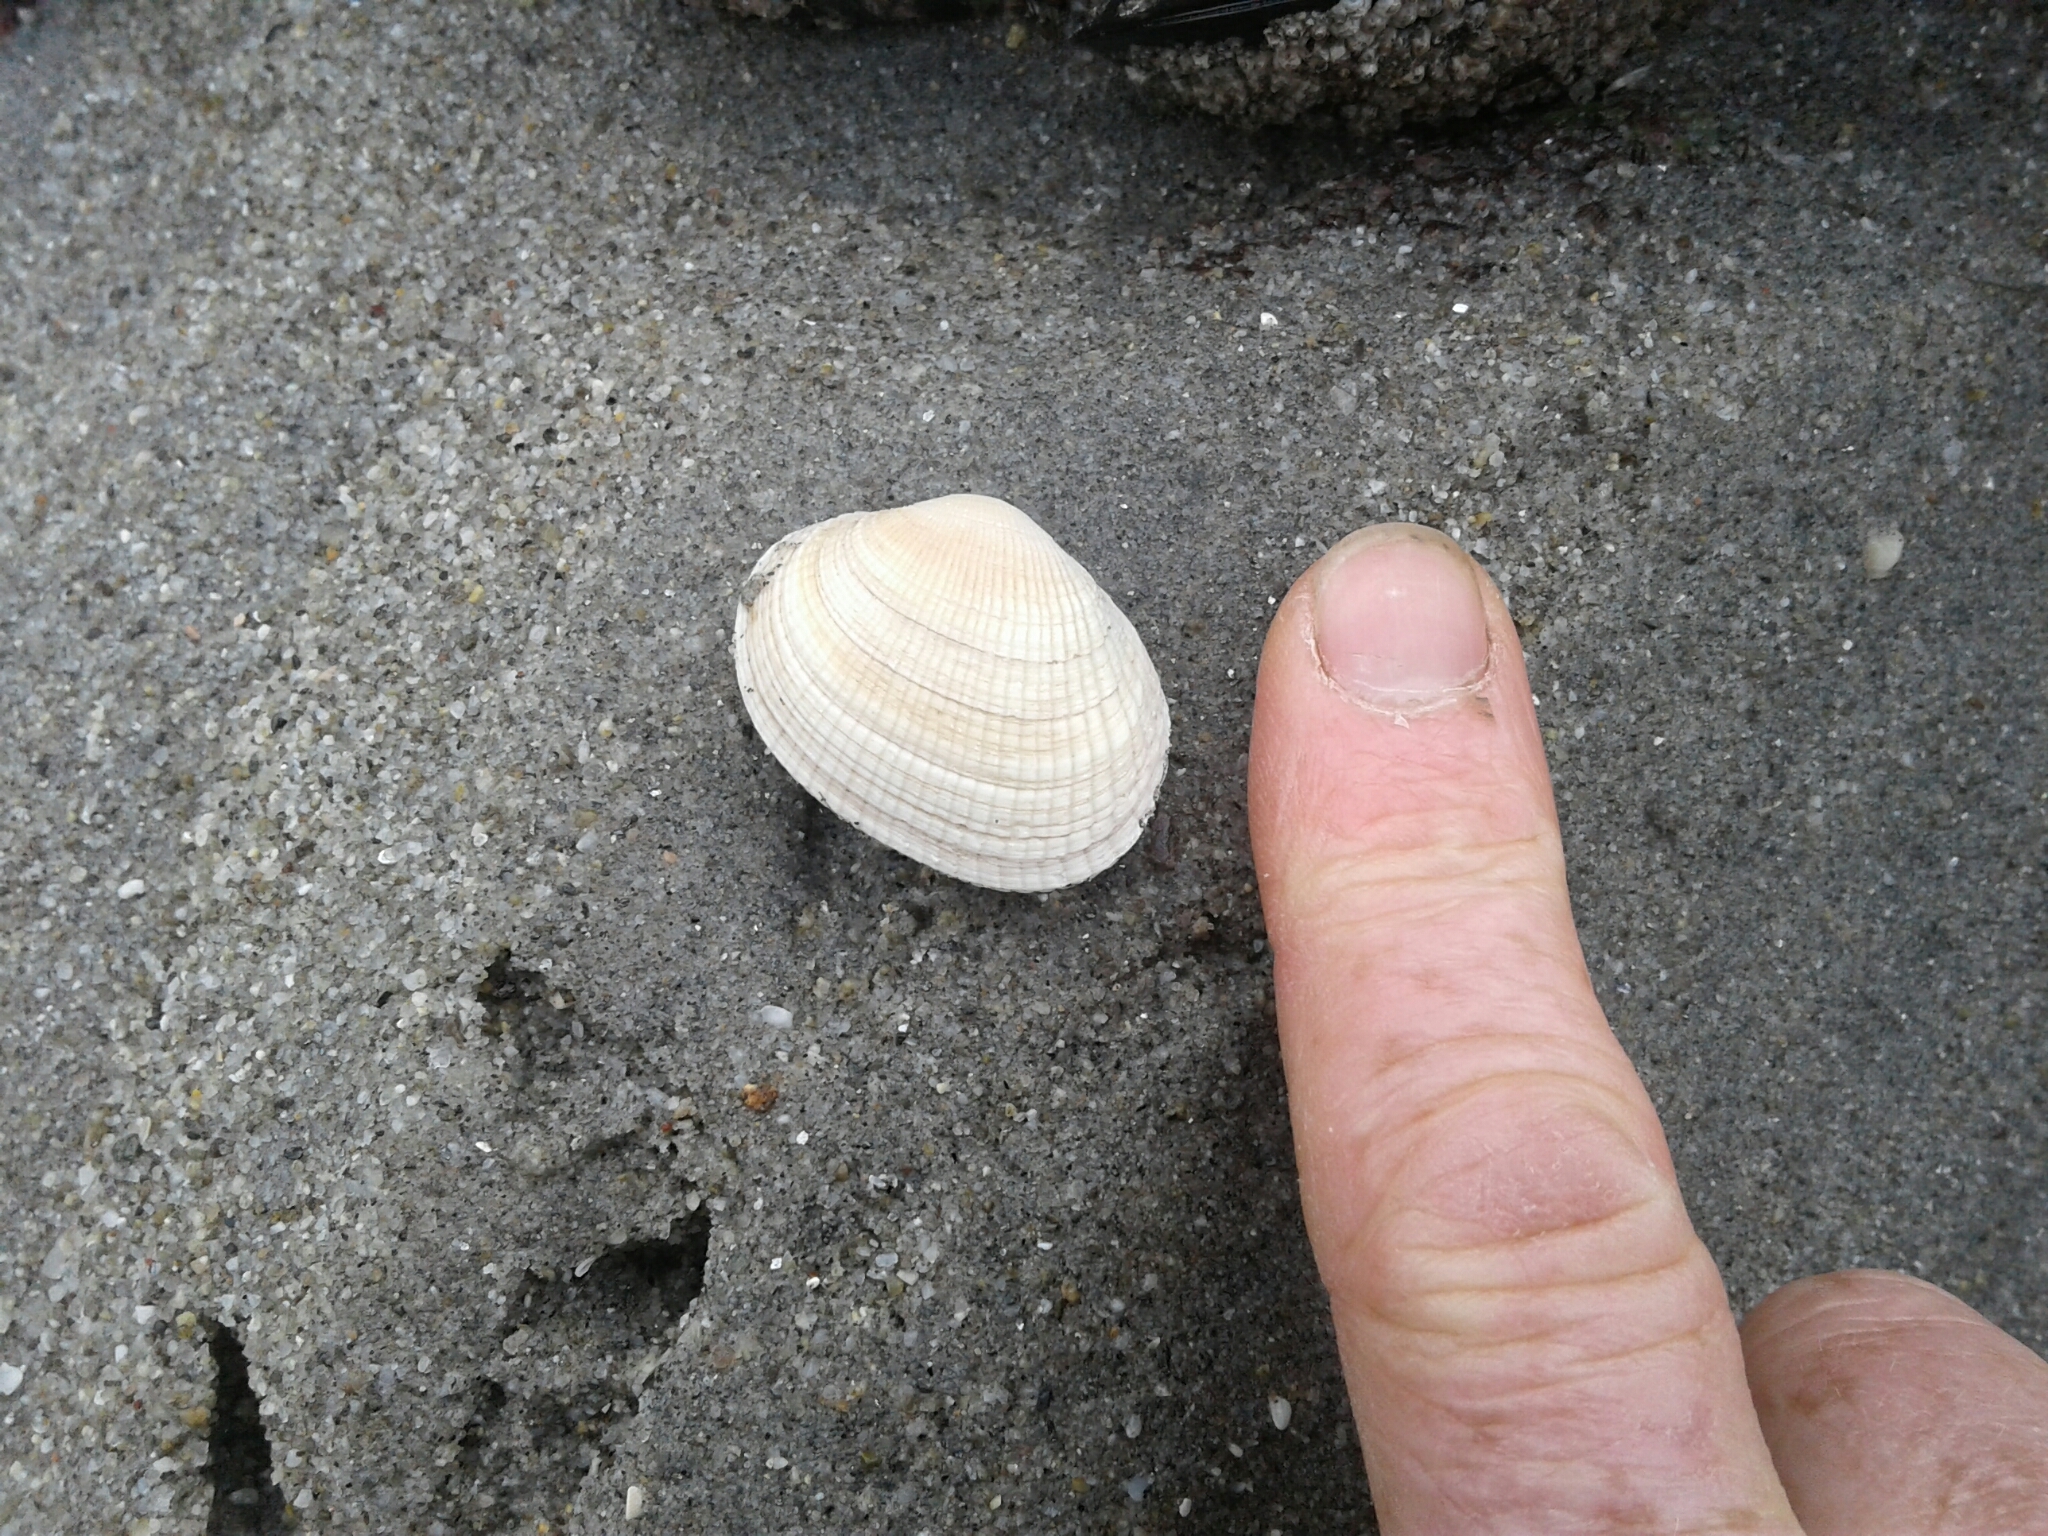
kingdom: Animalia
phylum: Mollusca
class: Bivalvia
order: Venerida
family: Veneridae
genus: Leukoma
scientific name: Leukoma crassicosta
